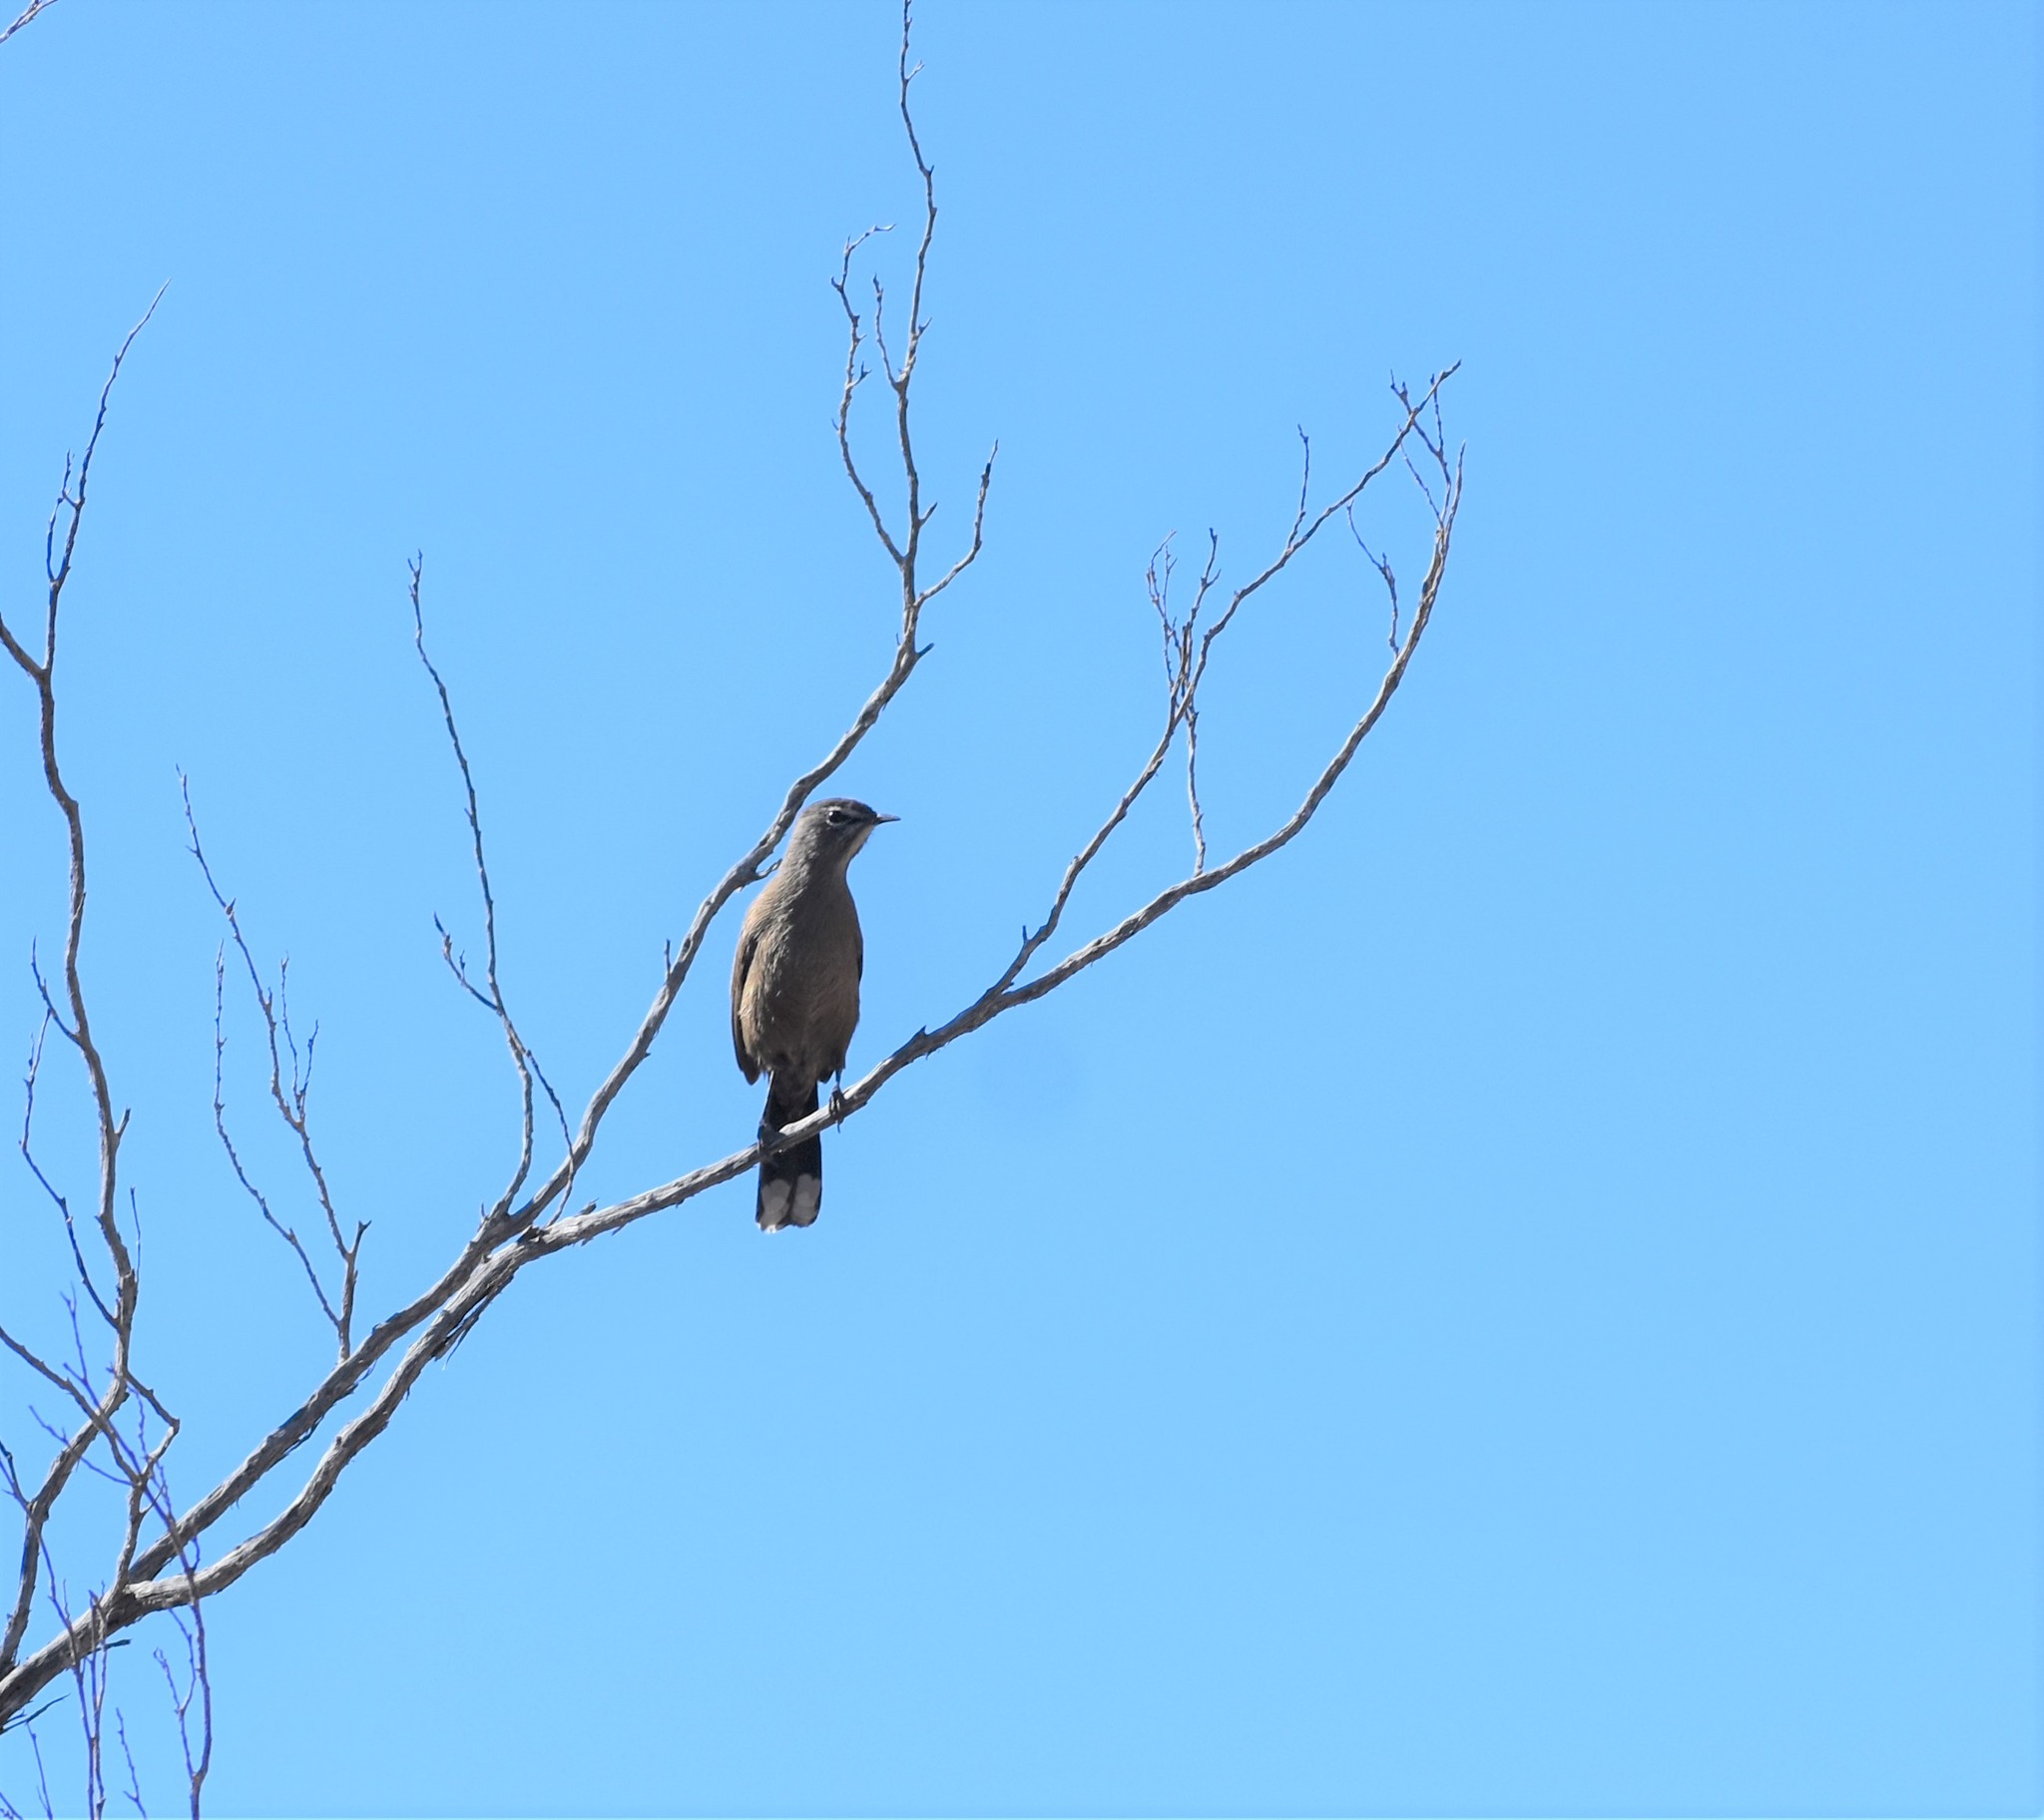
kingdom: Animalia
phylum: Chordata
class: Aves
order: Passeriformes
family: Muscicapidae
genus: Erythropygia
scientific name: Erythropygia coryphoeus
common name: Karoo scrub robin
